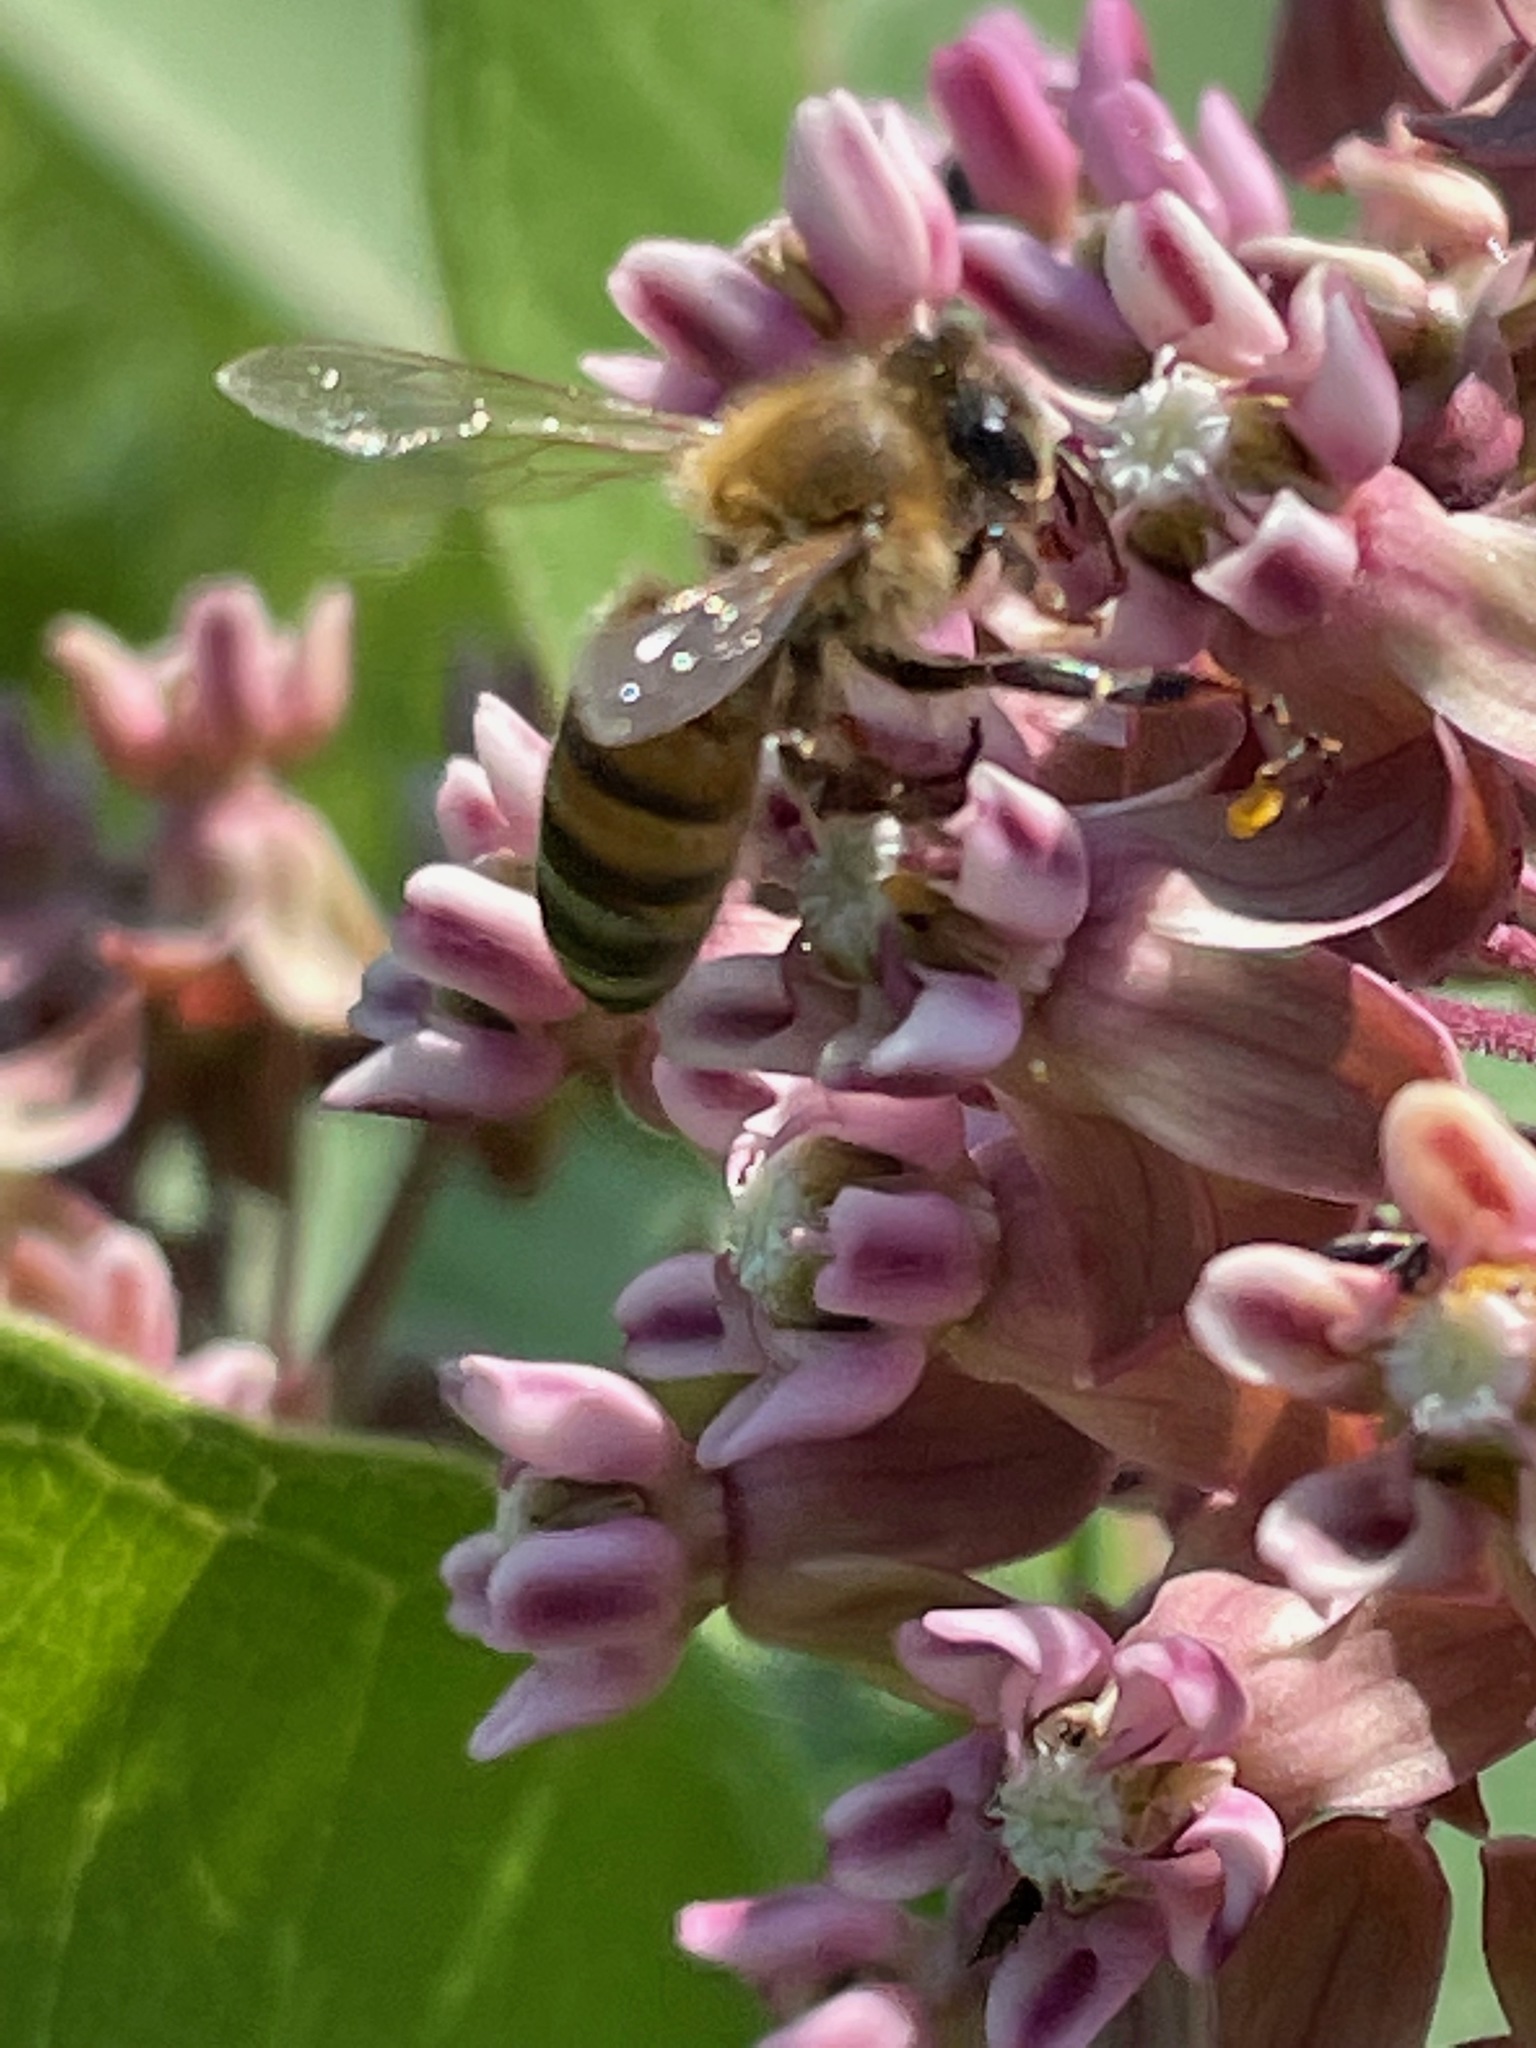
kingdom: Animalia
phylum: Arthropoda
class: Insecta
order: Hymenoptera
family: Apidae
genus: Apis
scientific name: Apis mellifera
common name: Honey bee
